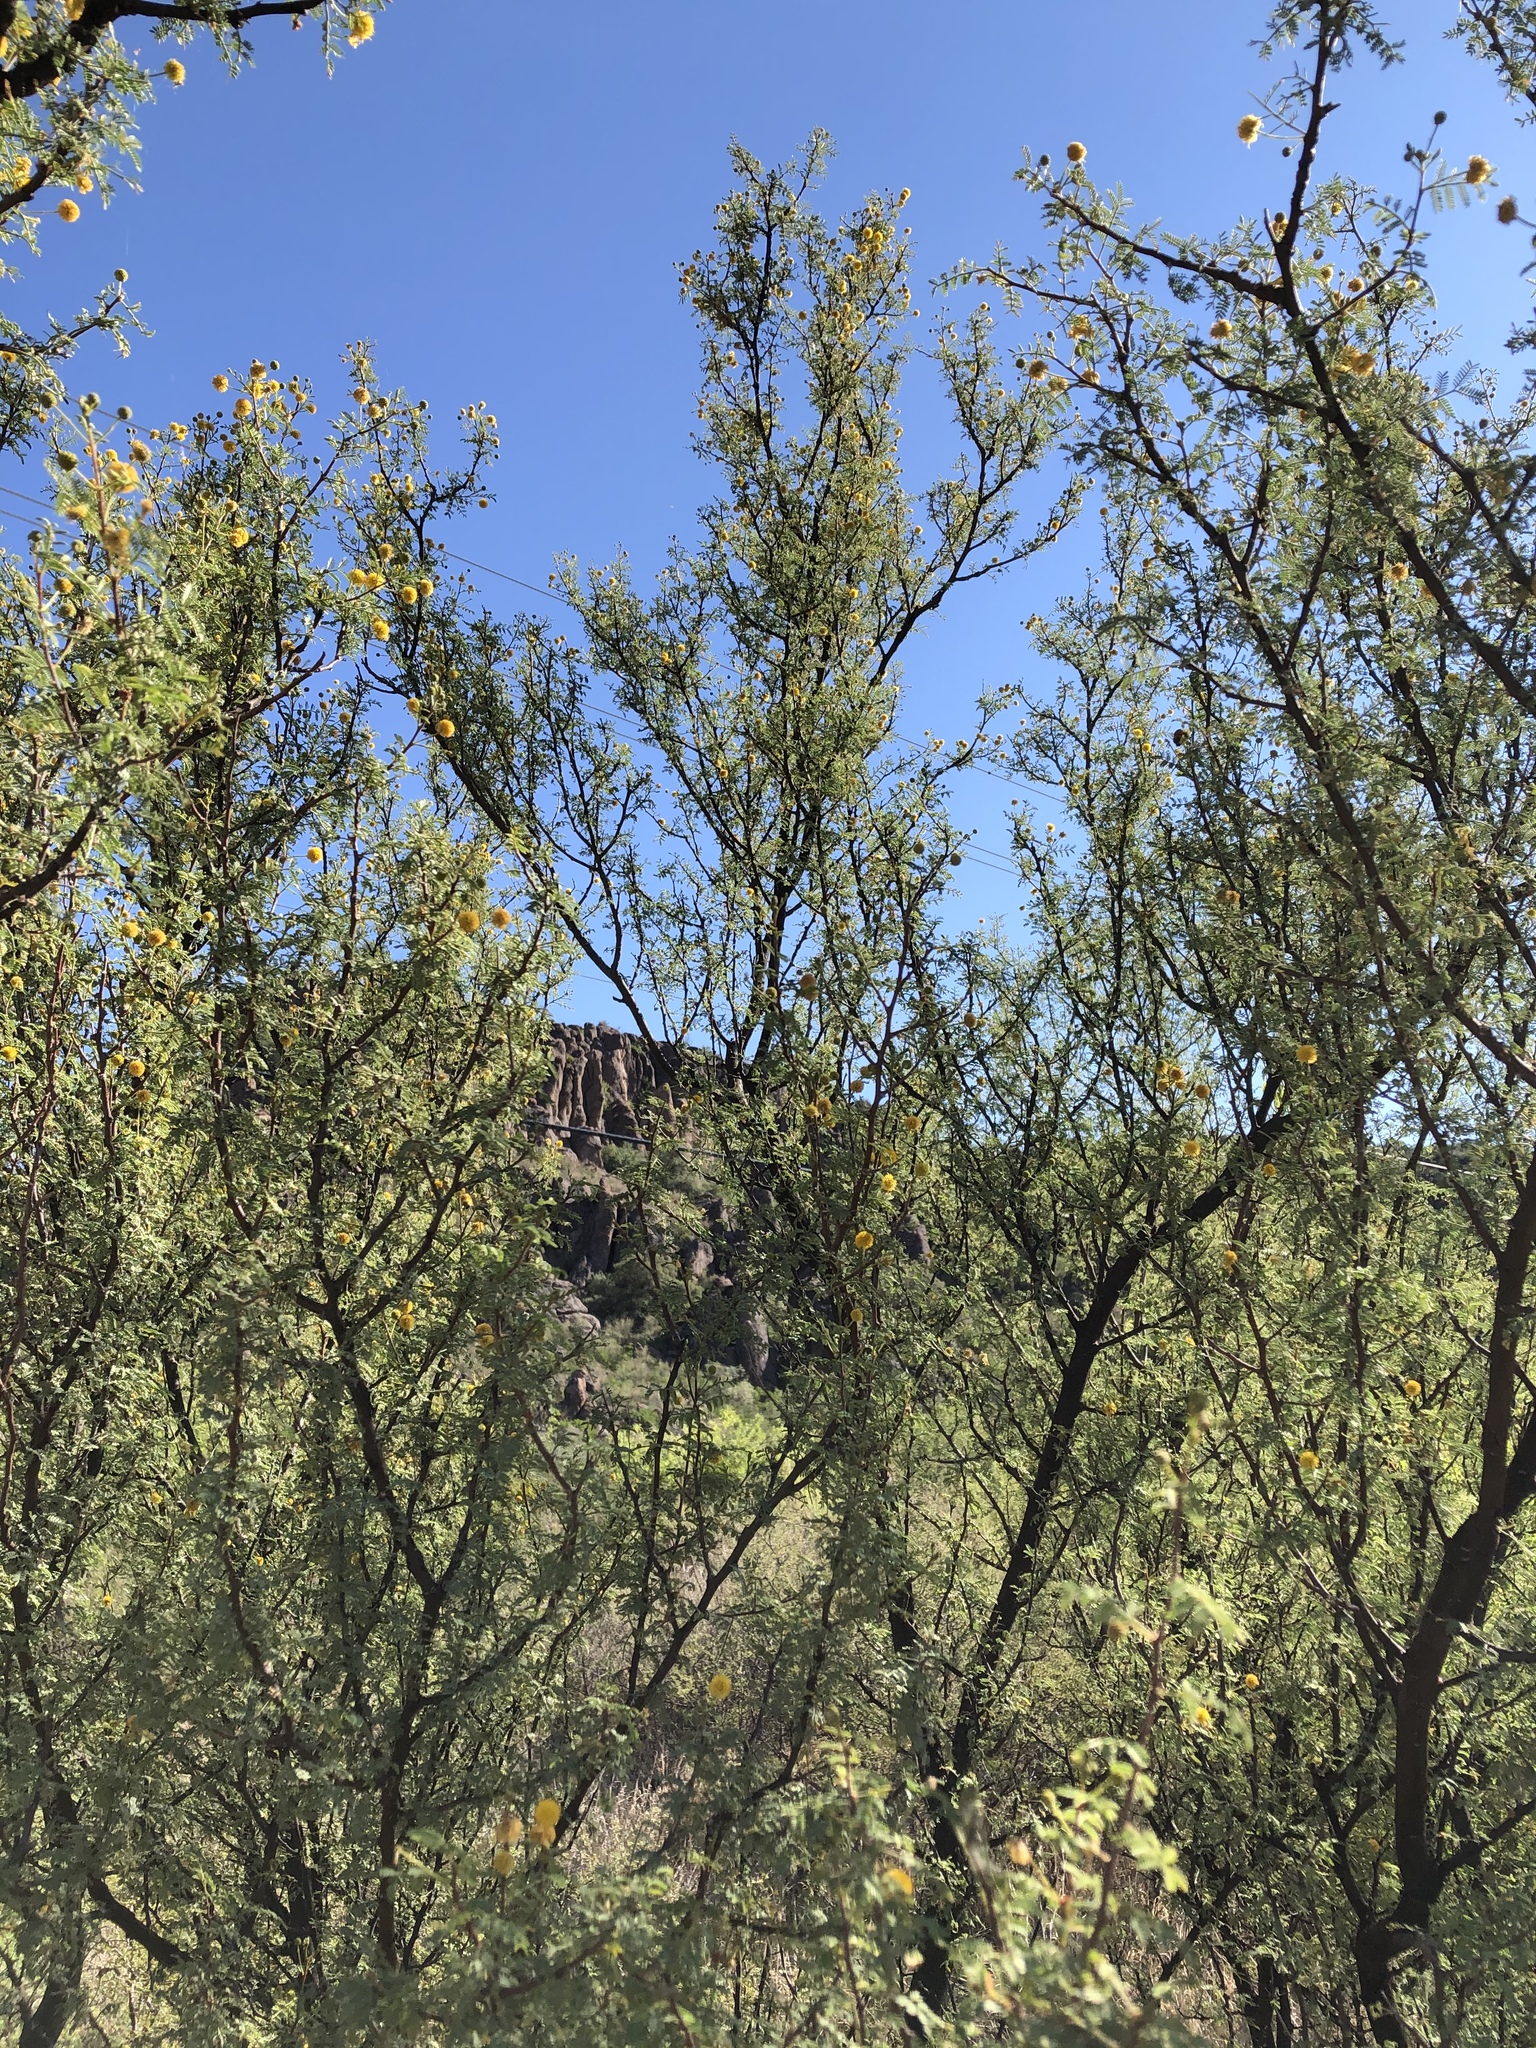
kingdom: Plantae
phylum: Tracheophyta
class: Magnoliopsida
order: Fabales
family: Fabaceae
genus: Vachellia
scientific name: Vachellia constricta
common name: Mescat acacia
